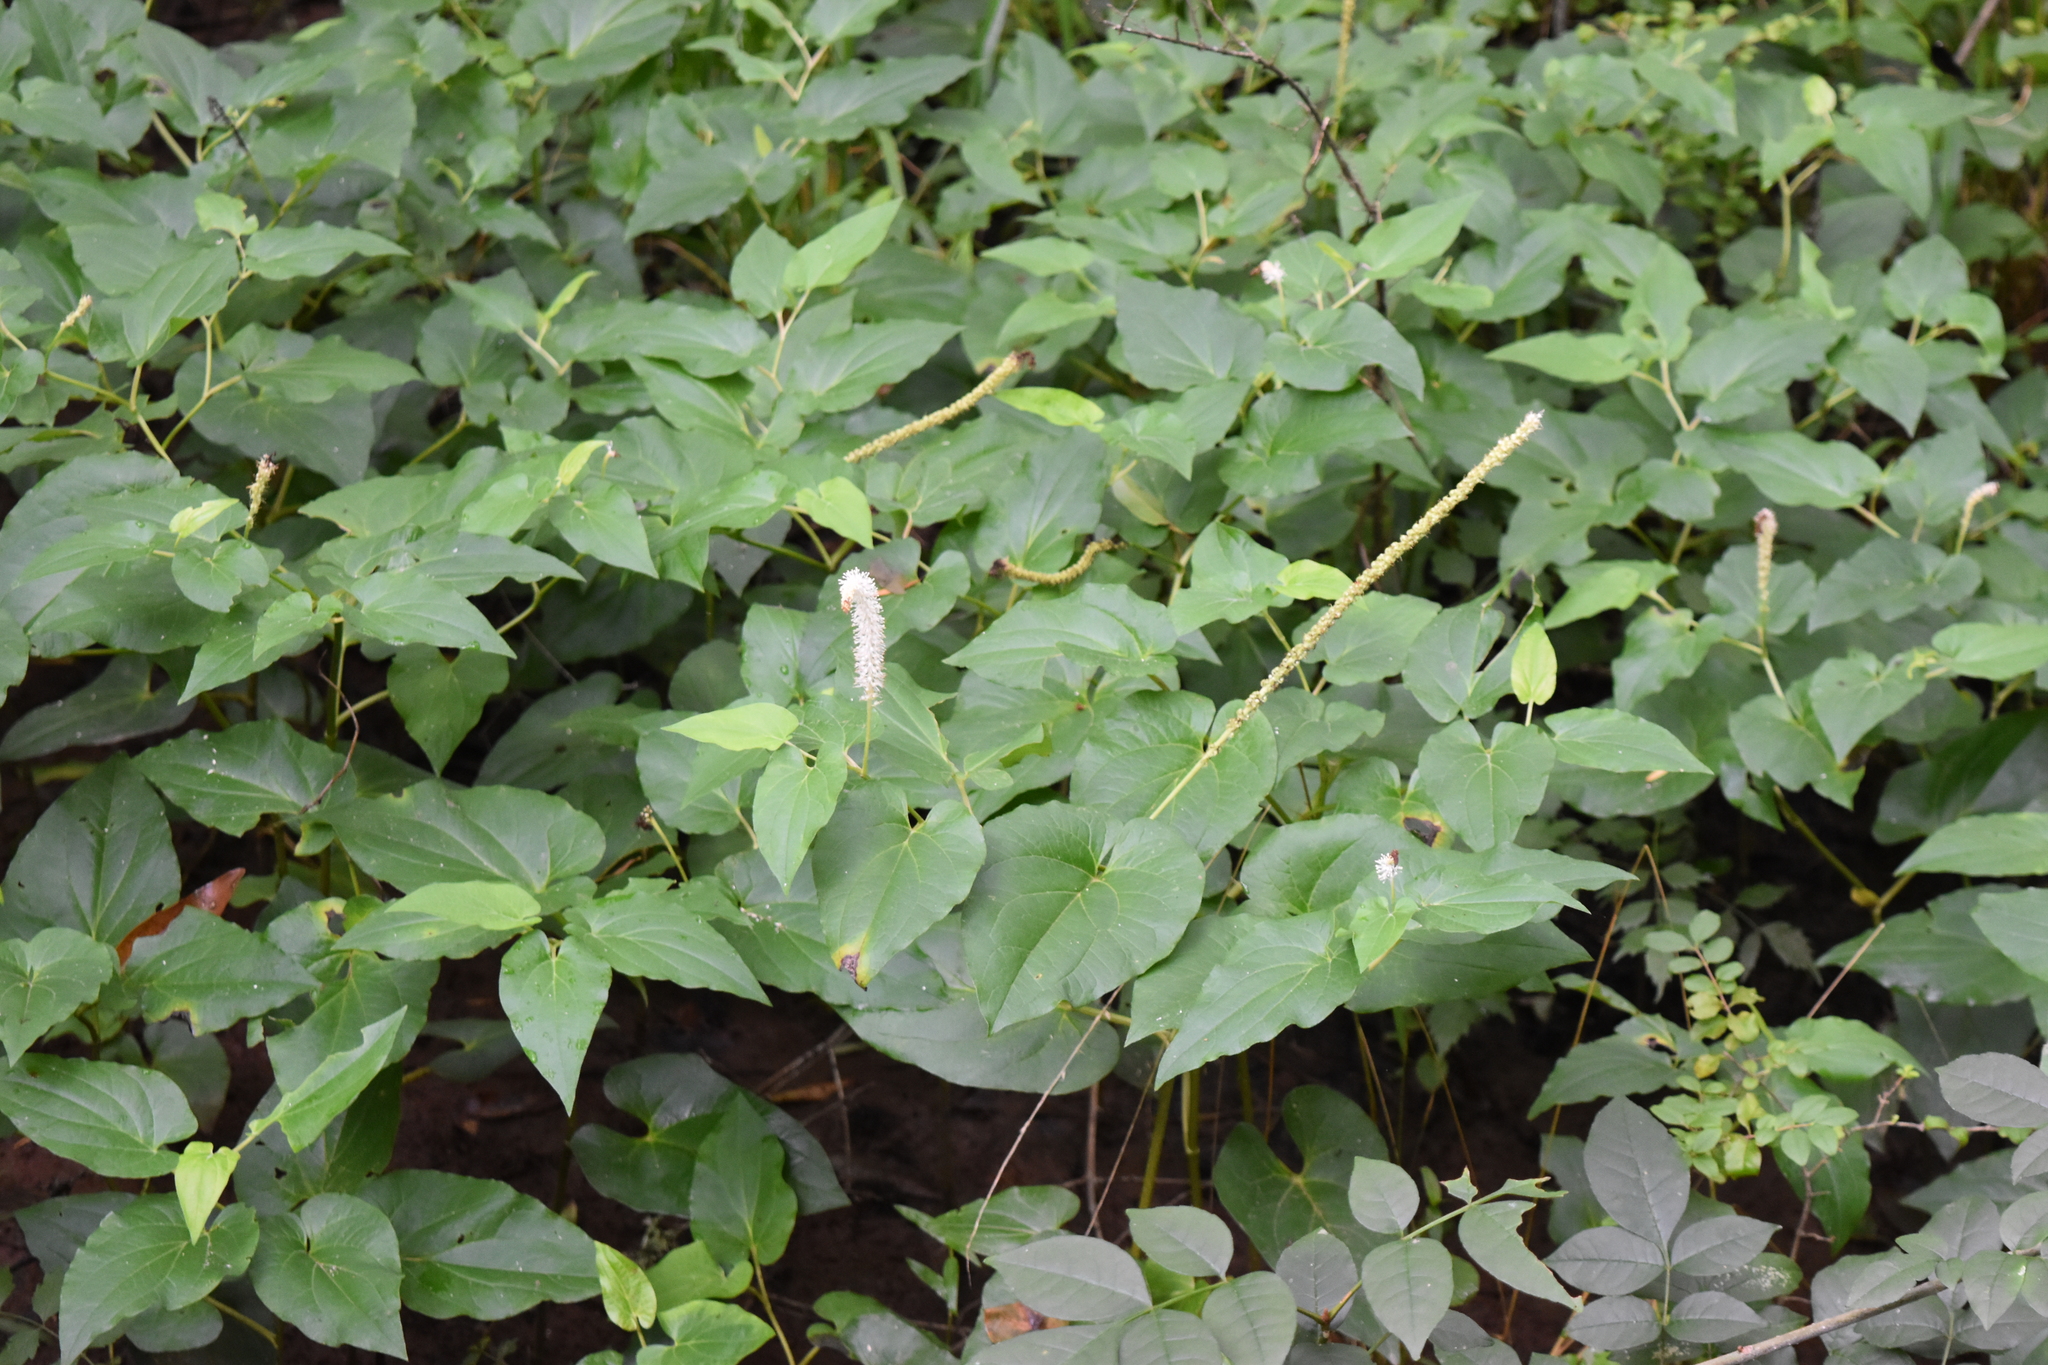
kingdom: Plantae
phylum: Tracheophyta
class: Magnoliopsida
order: Piperales
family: Saururaceae
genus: Saururus
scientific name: Saururus cernuus
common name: Lizard's-tail
